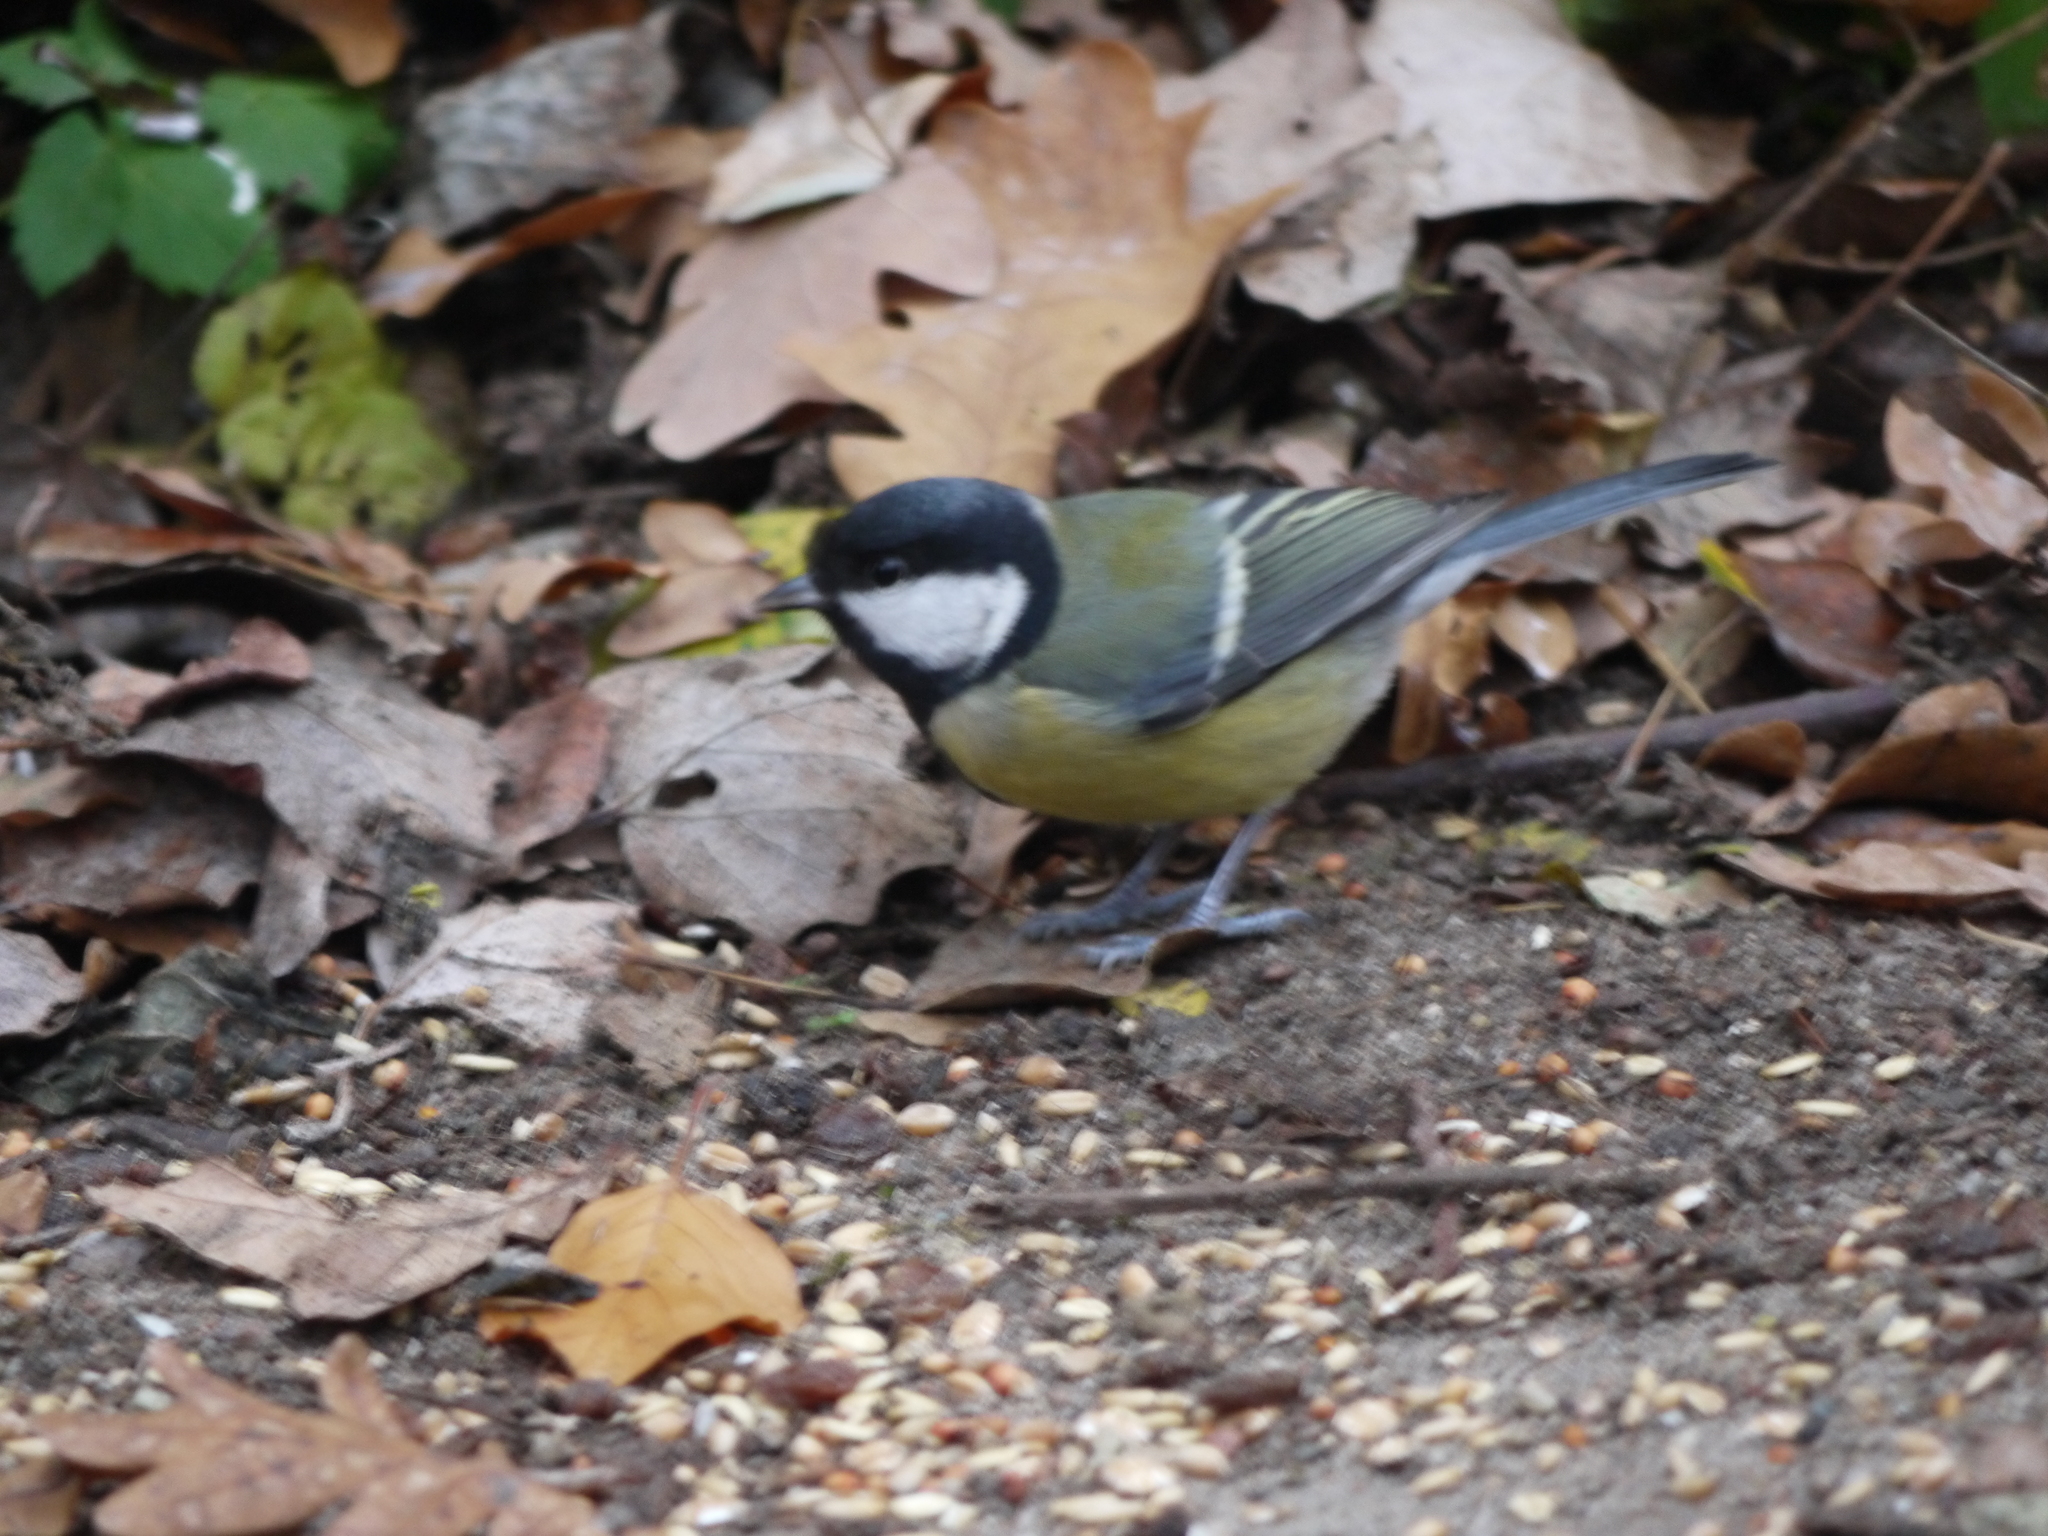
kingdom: Animalia
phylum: Chordata
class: Aves
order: Passeriformes
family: Paridae
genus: Parus
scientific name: Parus major
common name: Great tit
